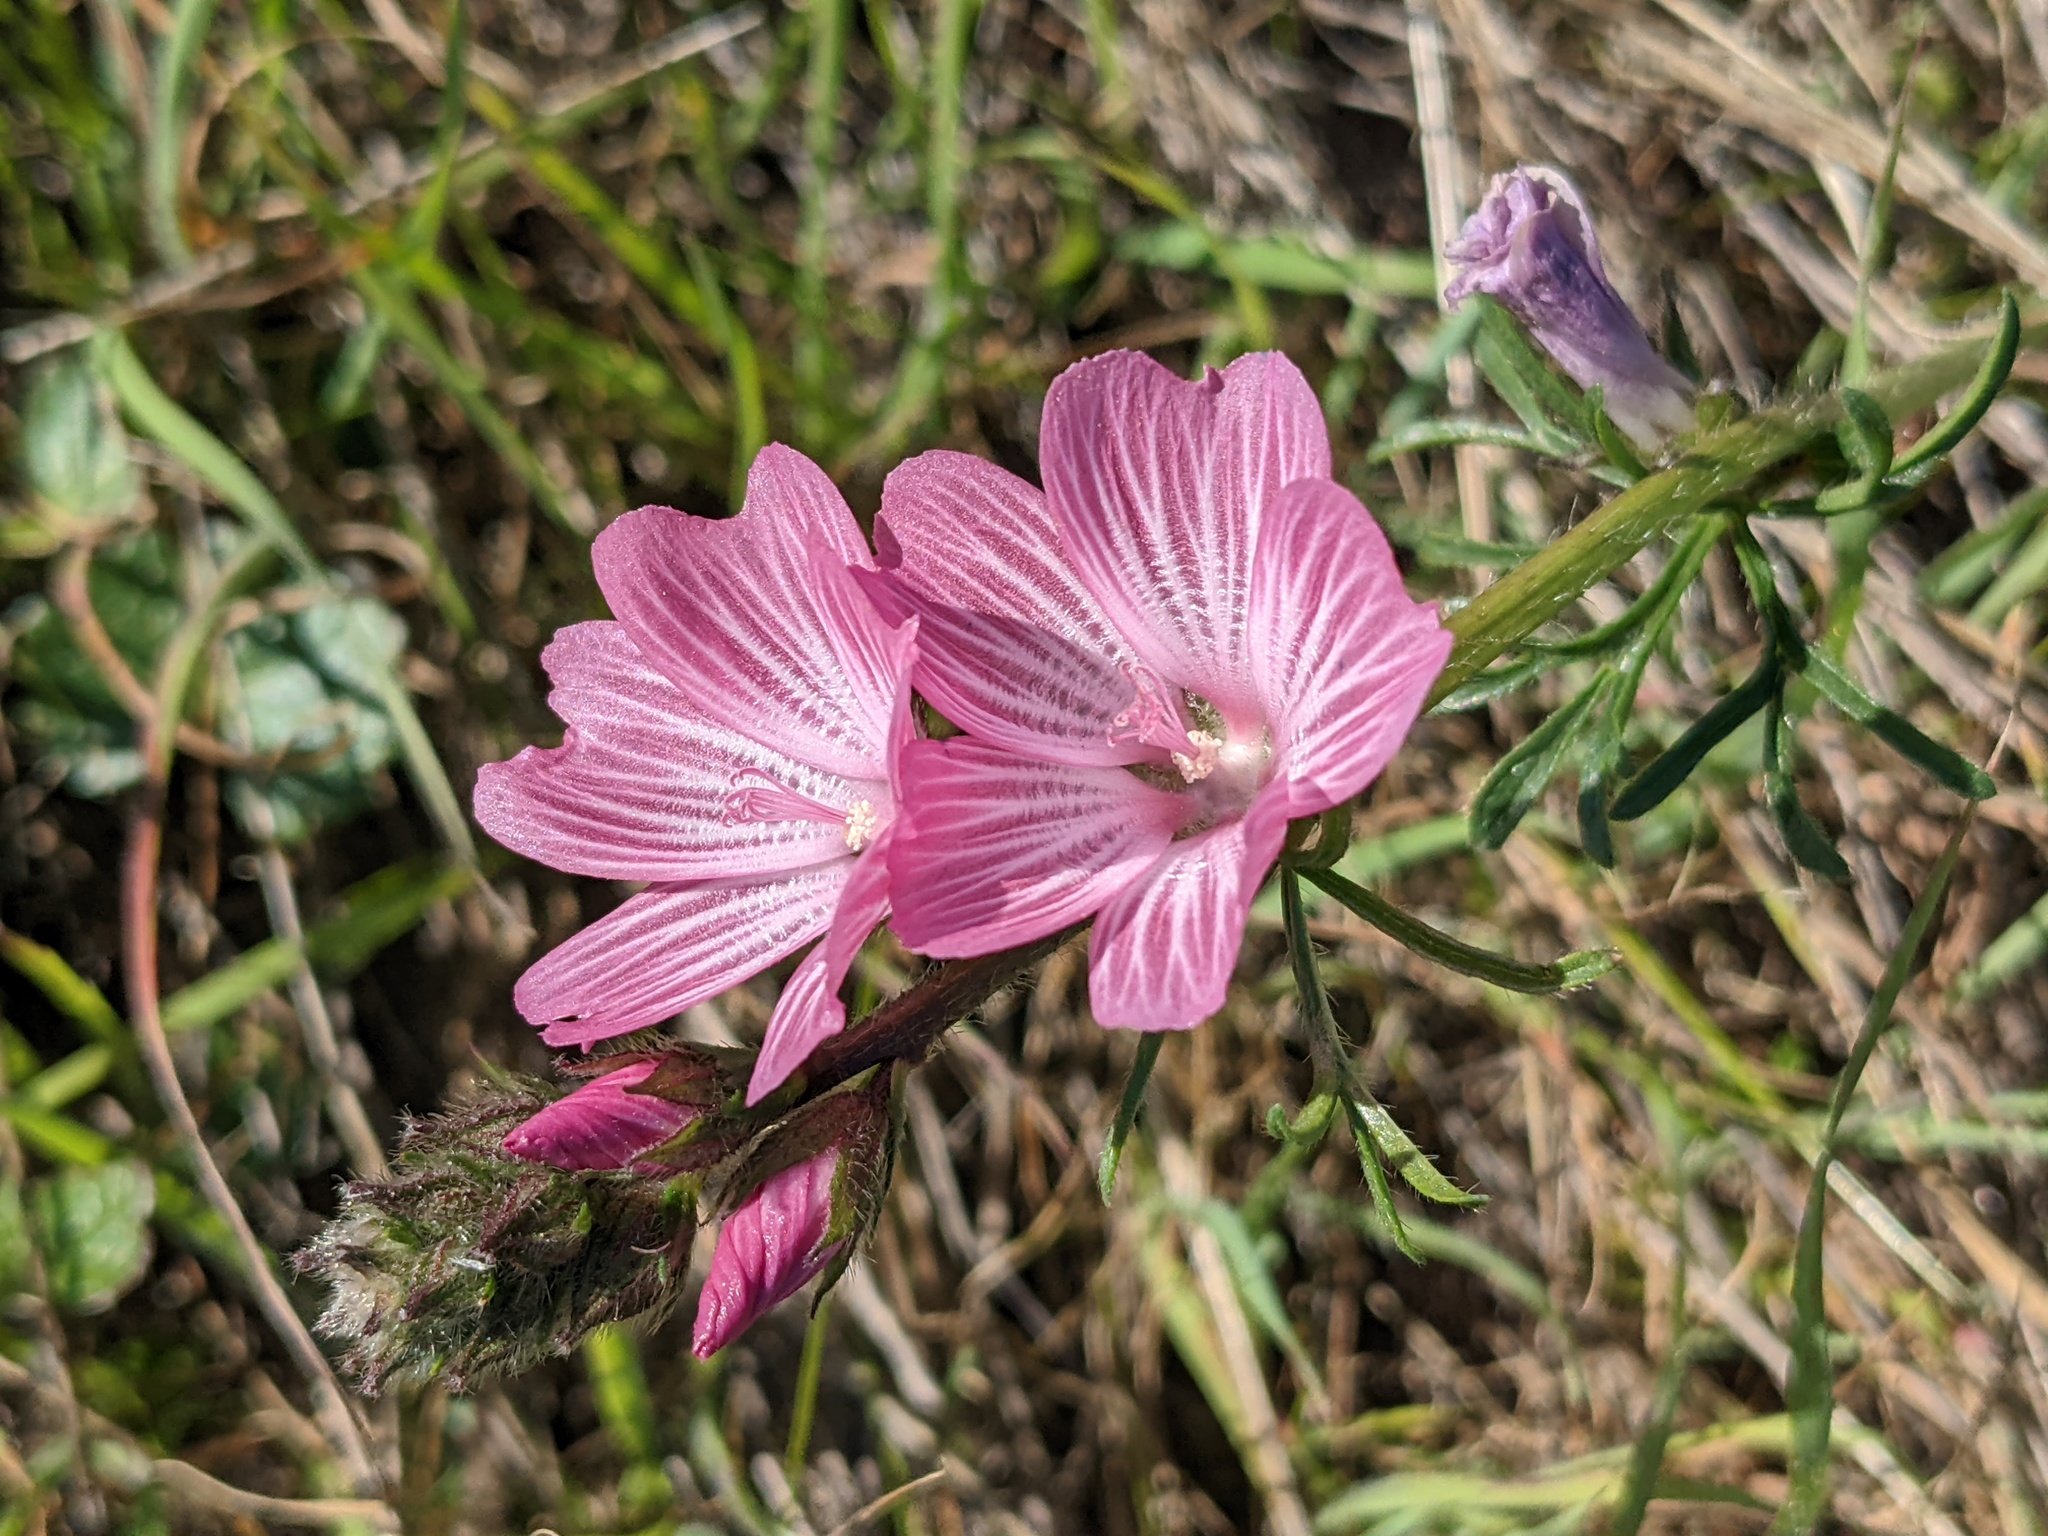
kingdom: Plantae
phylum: Tracheophyta
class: Magnoliopsida
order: Malvales
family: Malvaceae
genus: Sidalcea
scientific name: Sidalcea malviflora
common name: Greek mallow
